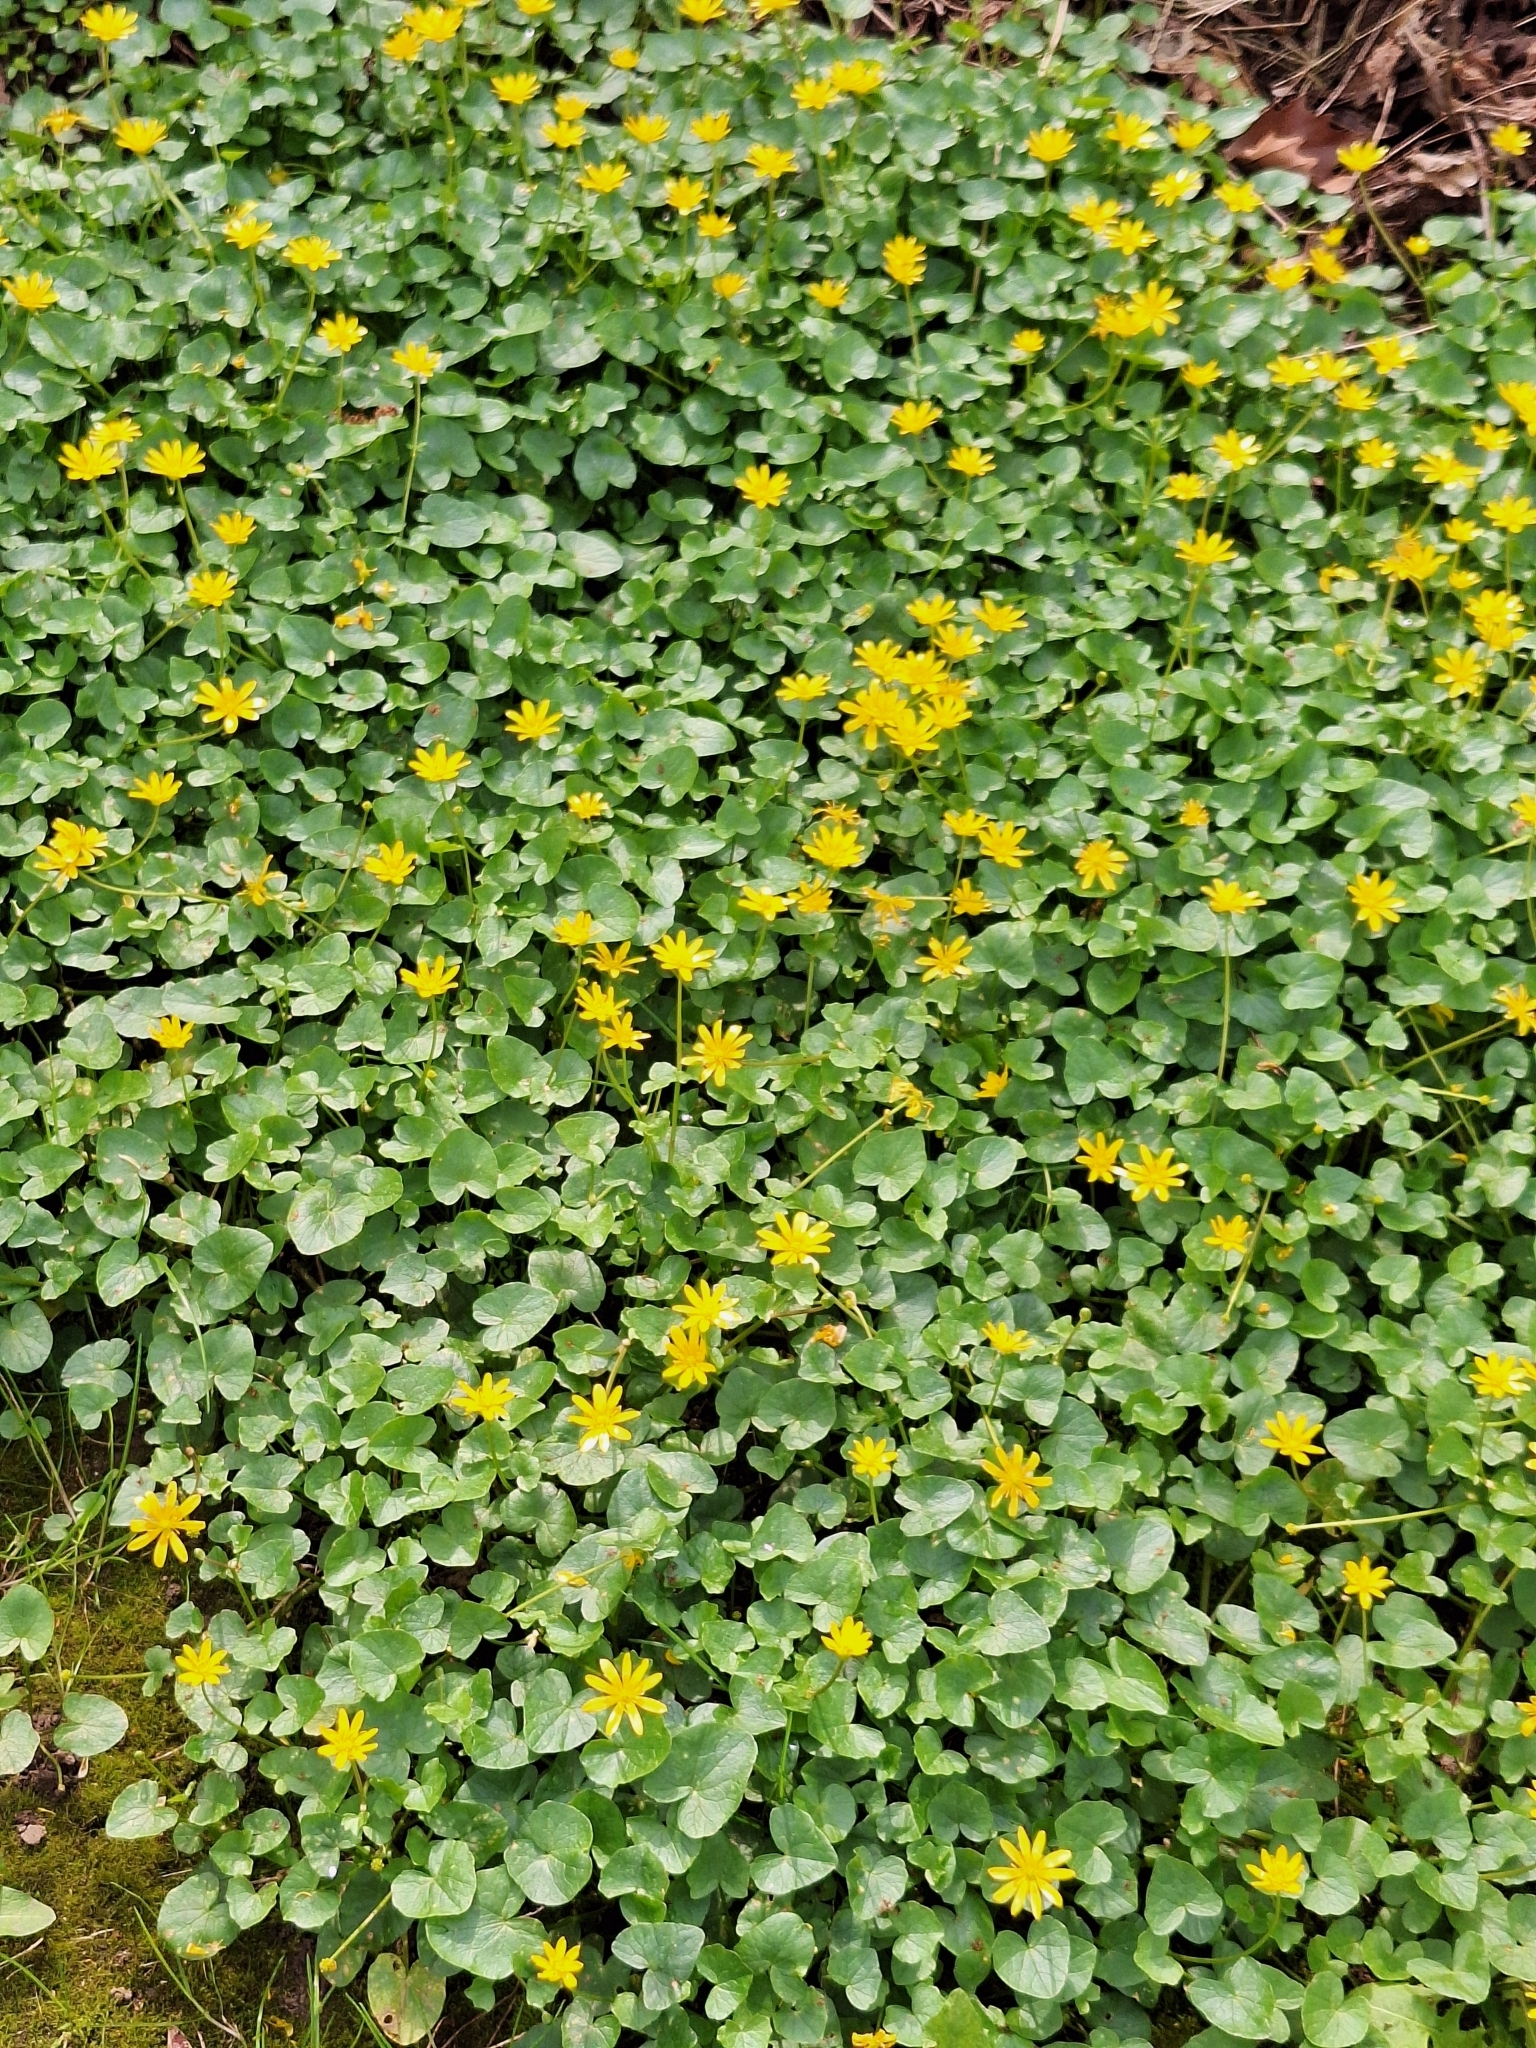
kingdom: Plantae
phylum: Tracheophyta
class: Magnoliopsida
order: Ranunculales
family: Ranunculaceae
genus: Ficaria
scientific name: Ficaria verna
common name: Lesser celandine
